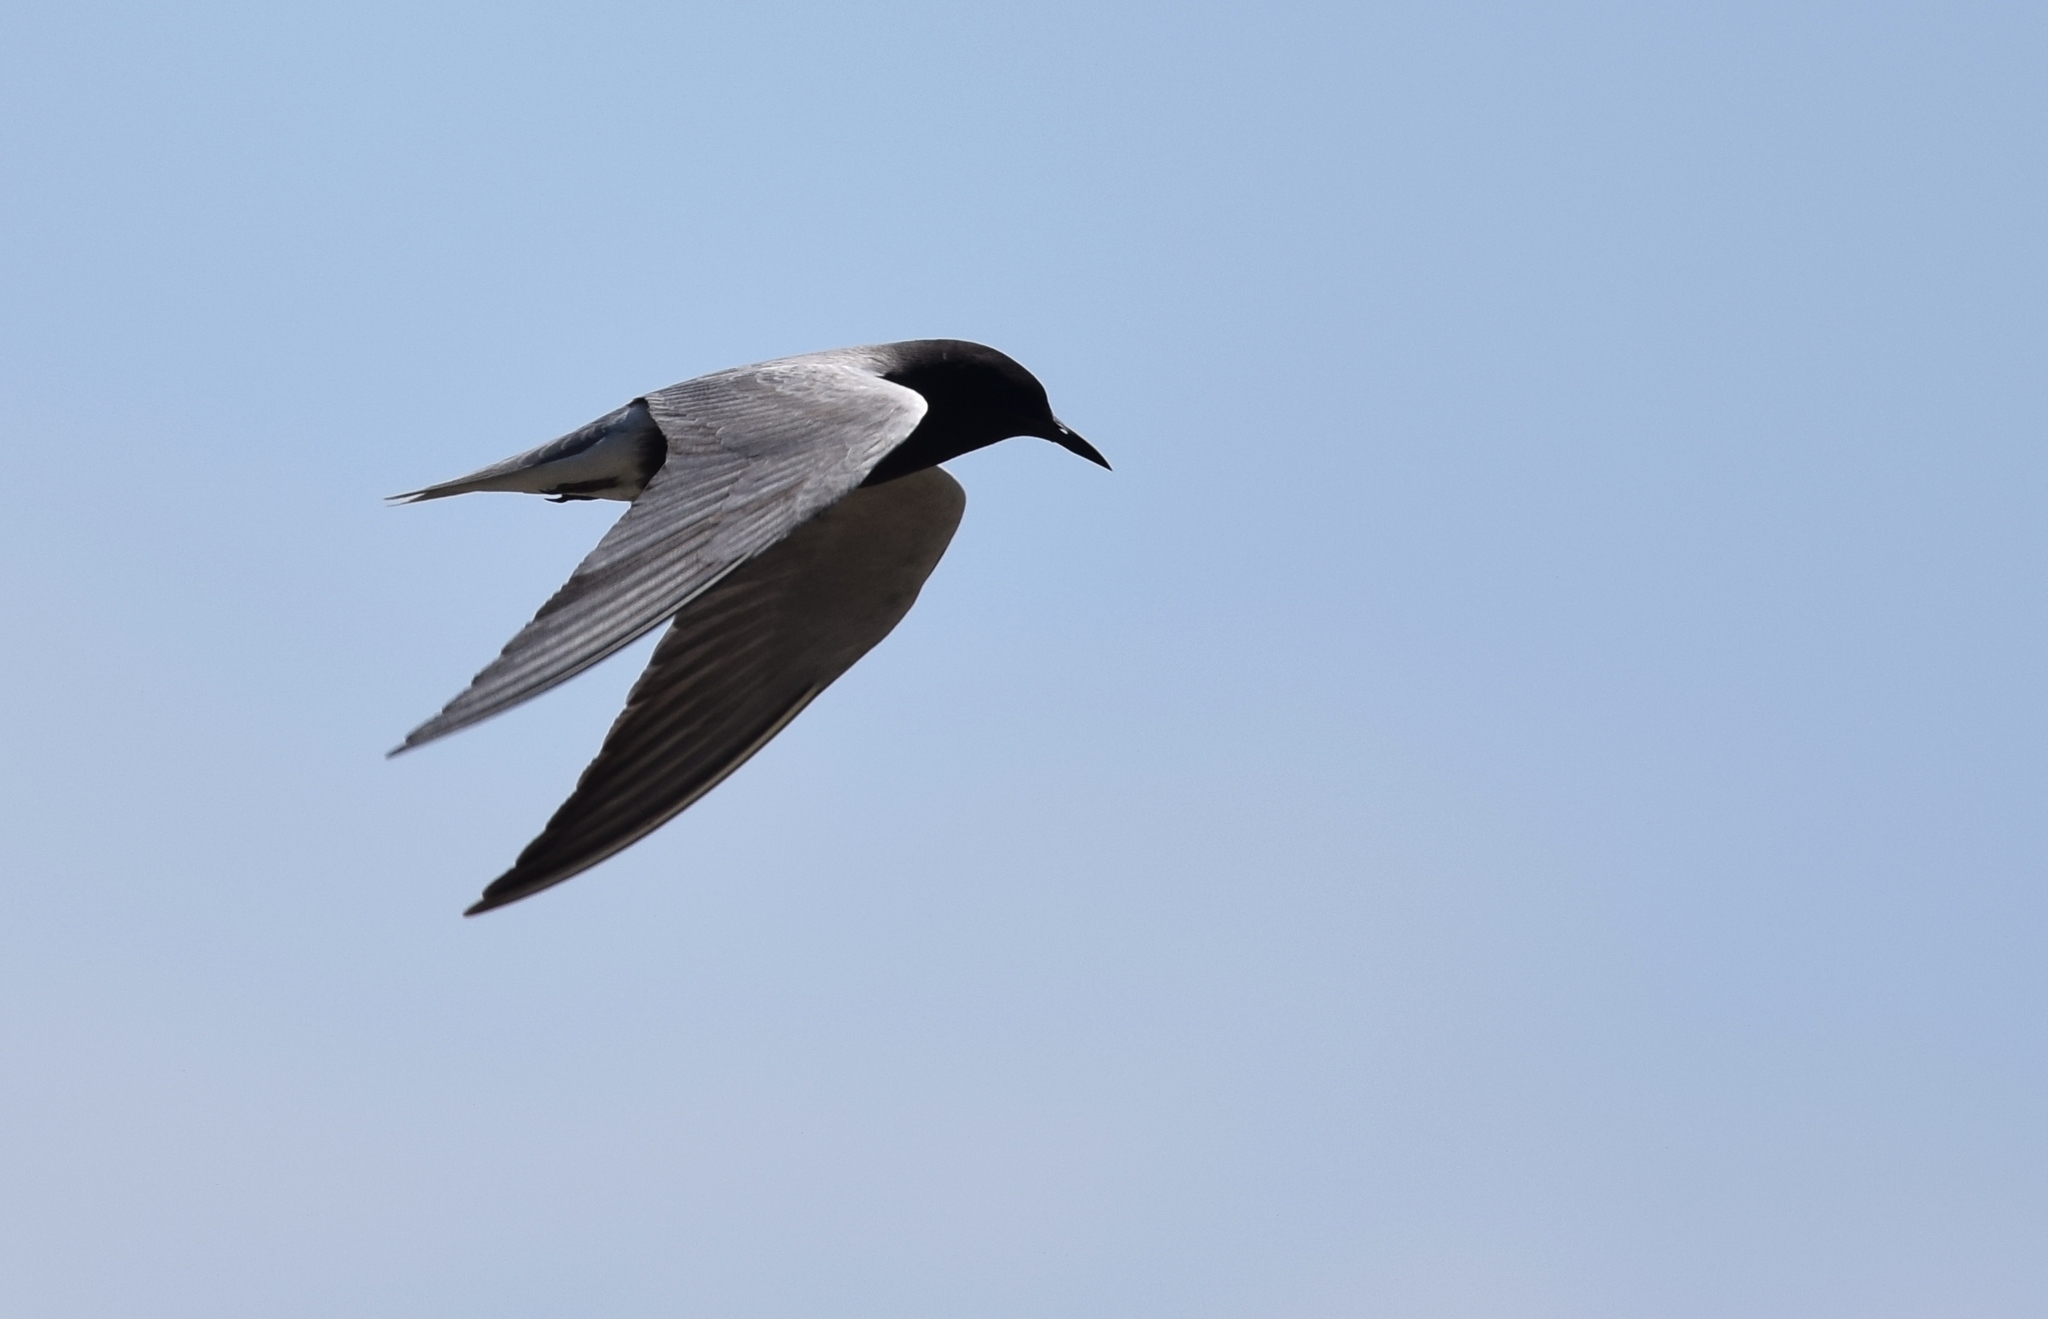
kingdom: Animalia
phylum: Chordata
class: Aves
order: Charadriiformes
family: Laridae
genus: Chlidonias
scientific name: Chlidonias niger
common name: Black tern
